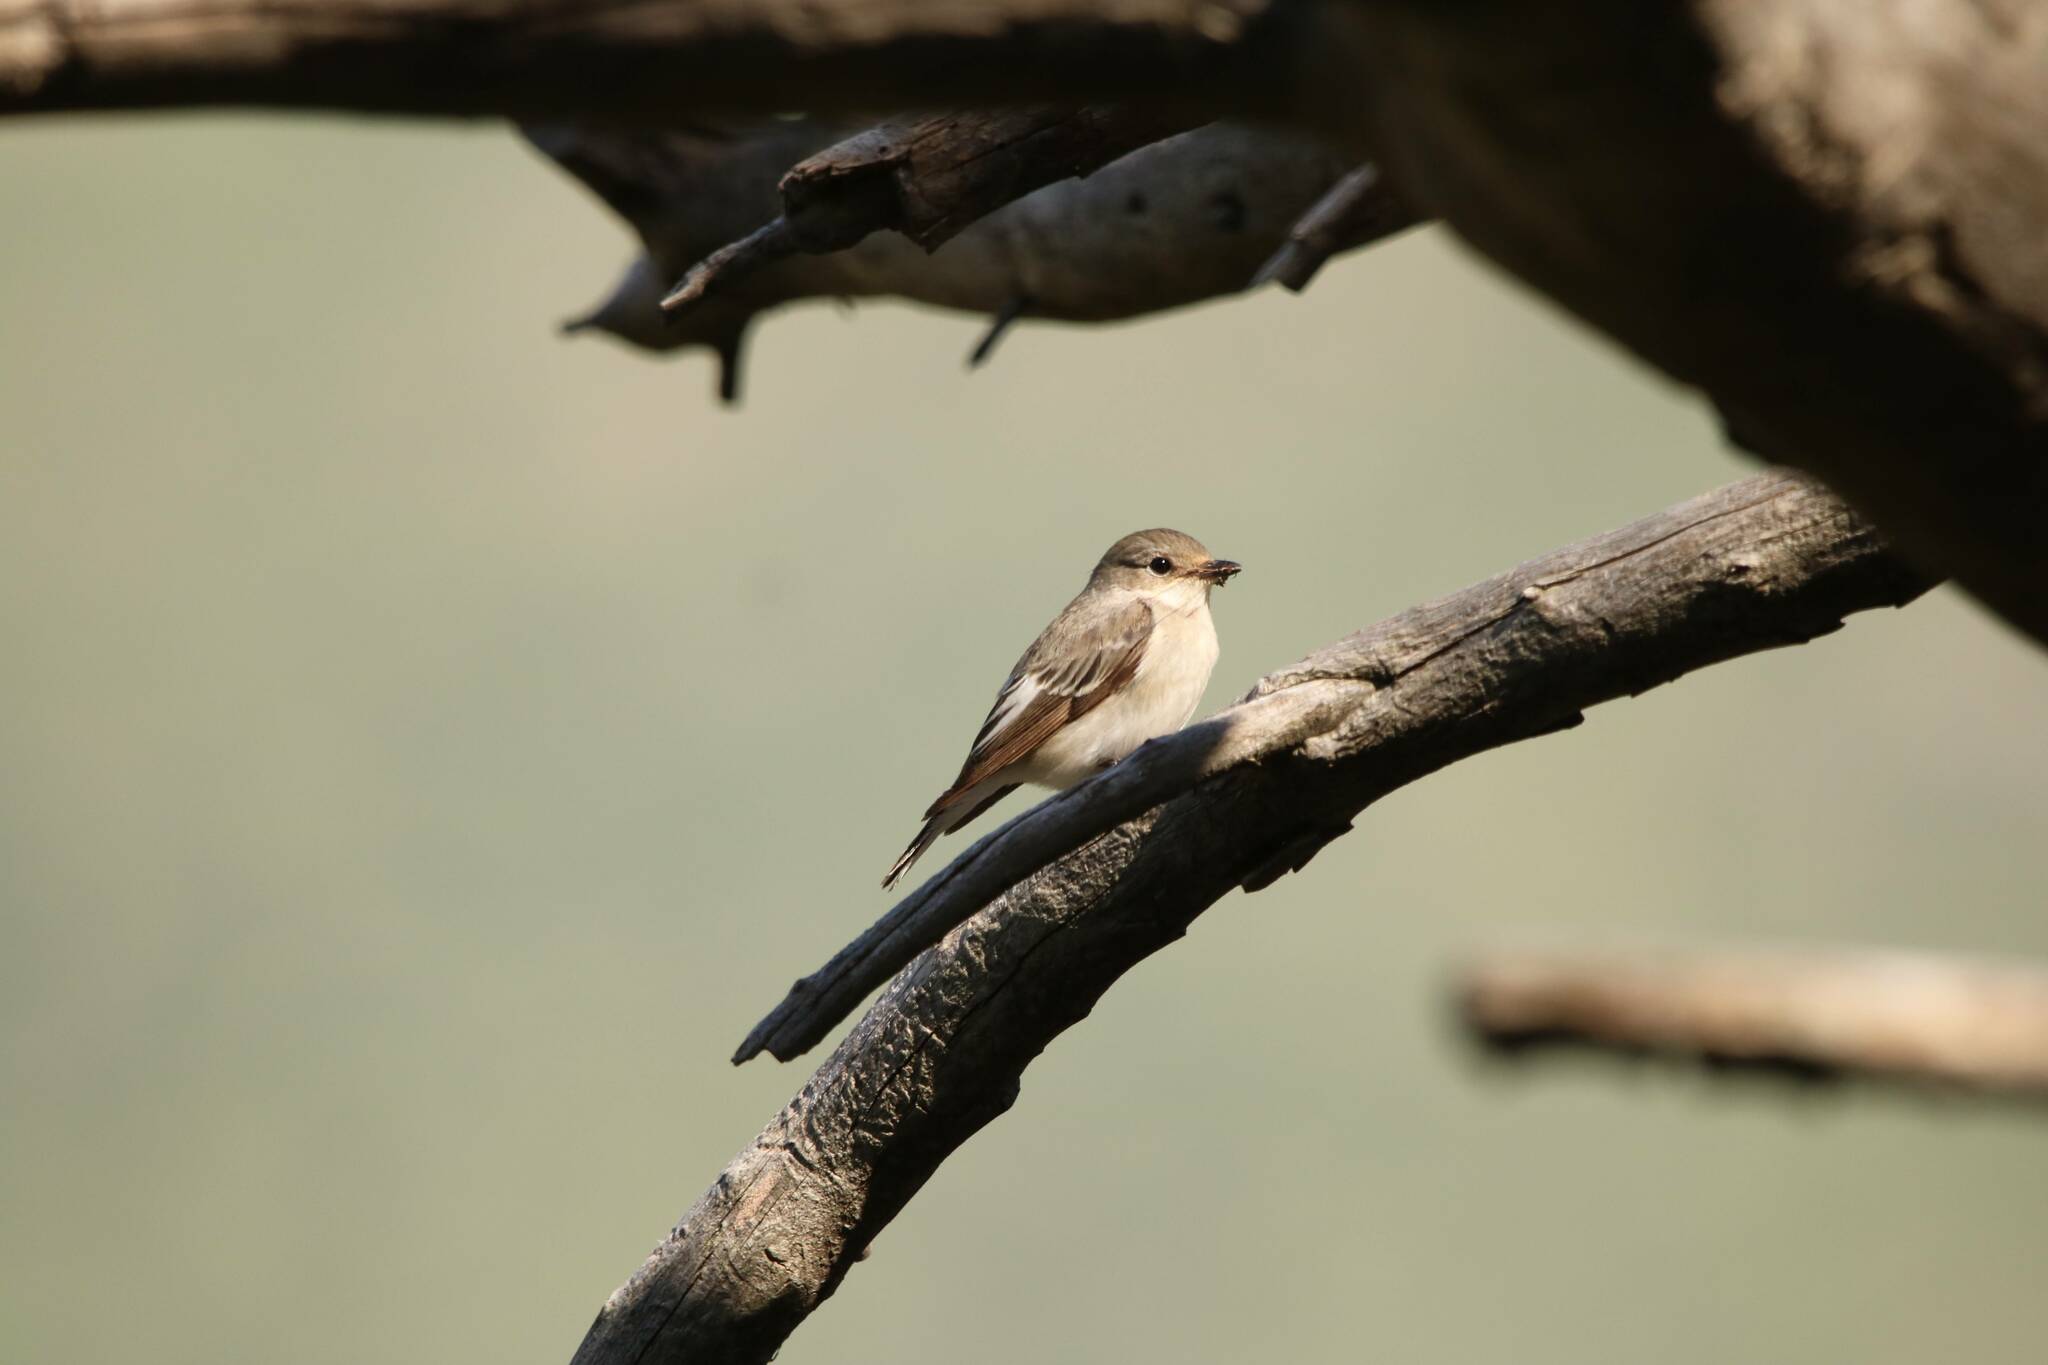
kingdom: Animalia
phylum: Chordata
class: Aves
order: Passeriformes
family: Muscicapidae
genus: Ficedula
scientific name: Ficedula speculigera
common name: Atlas pied flycatcher
